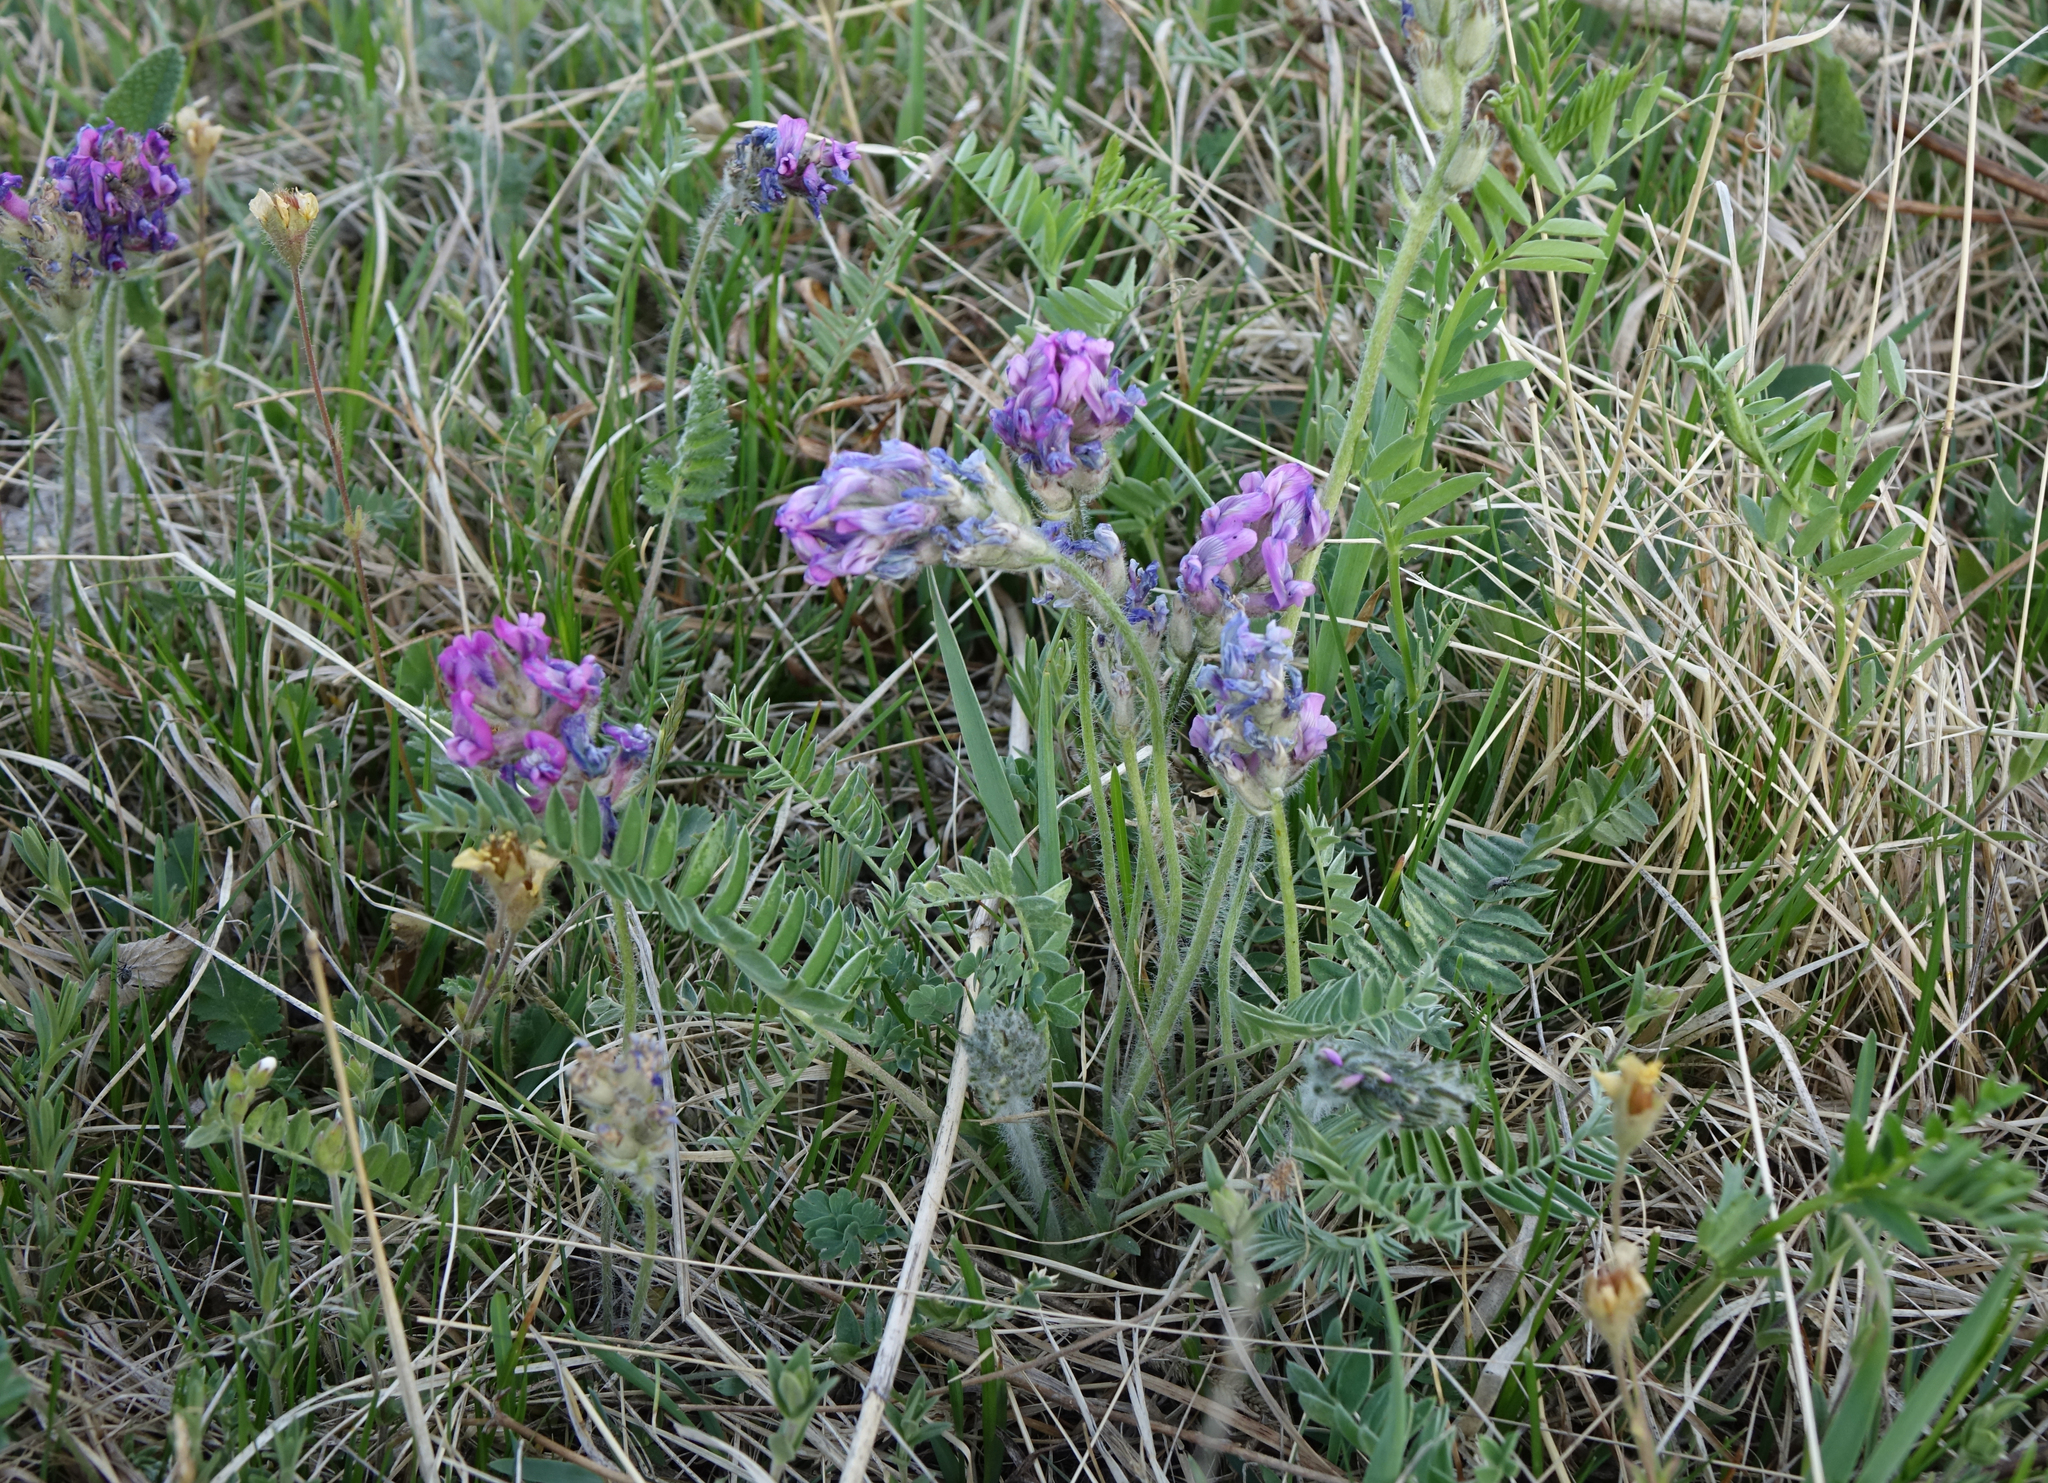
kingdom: Plantae
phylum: Tracheophyta
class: Magnoliopsida
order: Fabales
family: Fabaceae
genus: Oxytropis
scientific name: Oxytropis strobilacea
